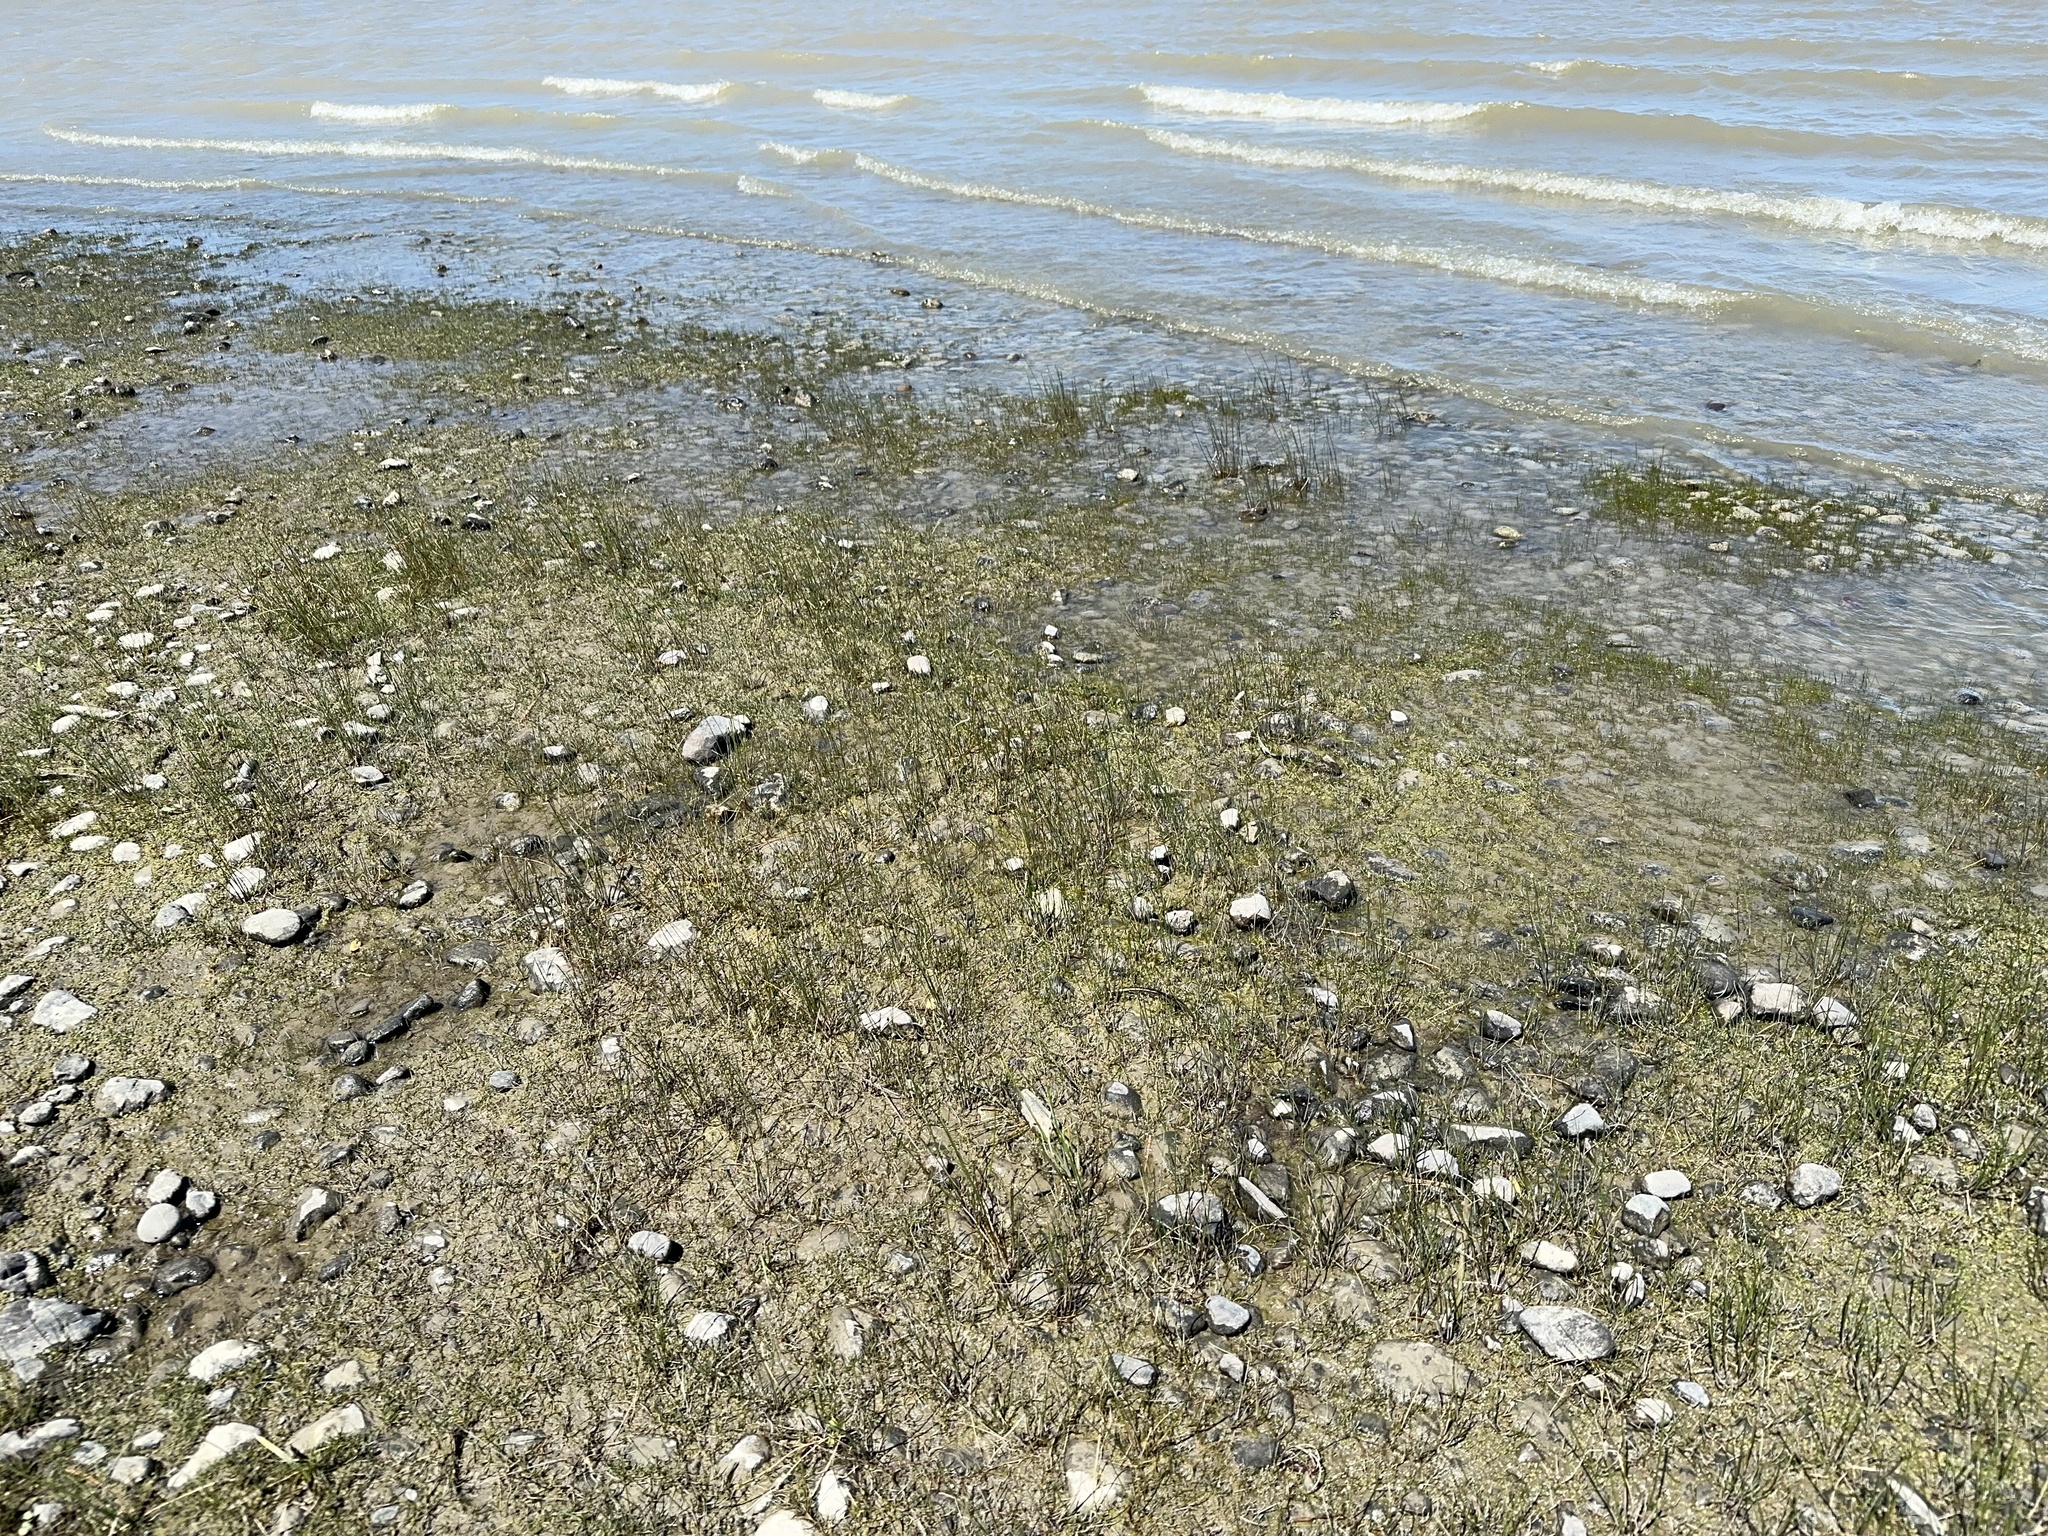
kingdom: Plantae
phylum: Tracheophyta
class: Liliopsida
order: Poales
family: Cyperaceae
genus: Eleocharis
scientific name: Eleocharis acuta
